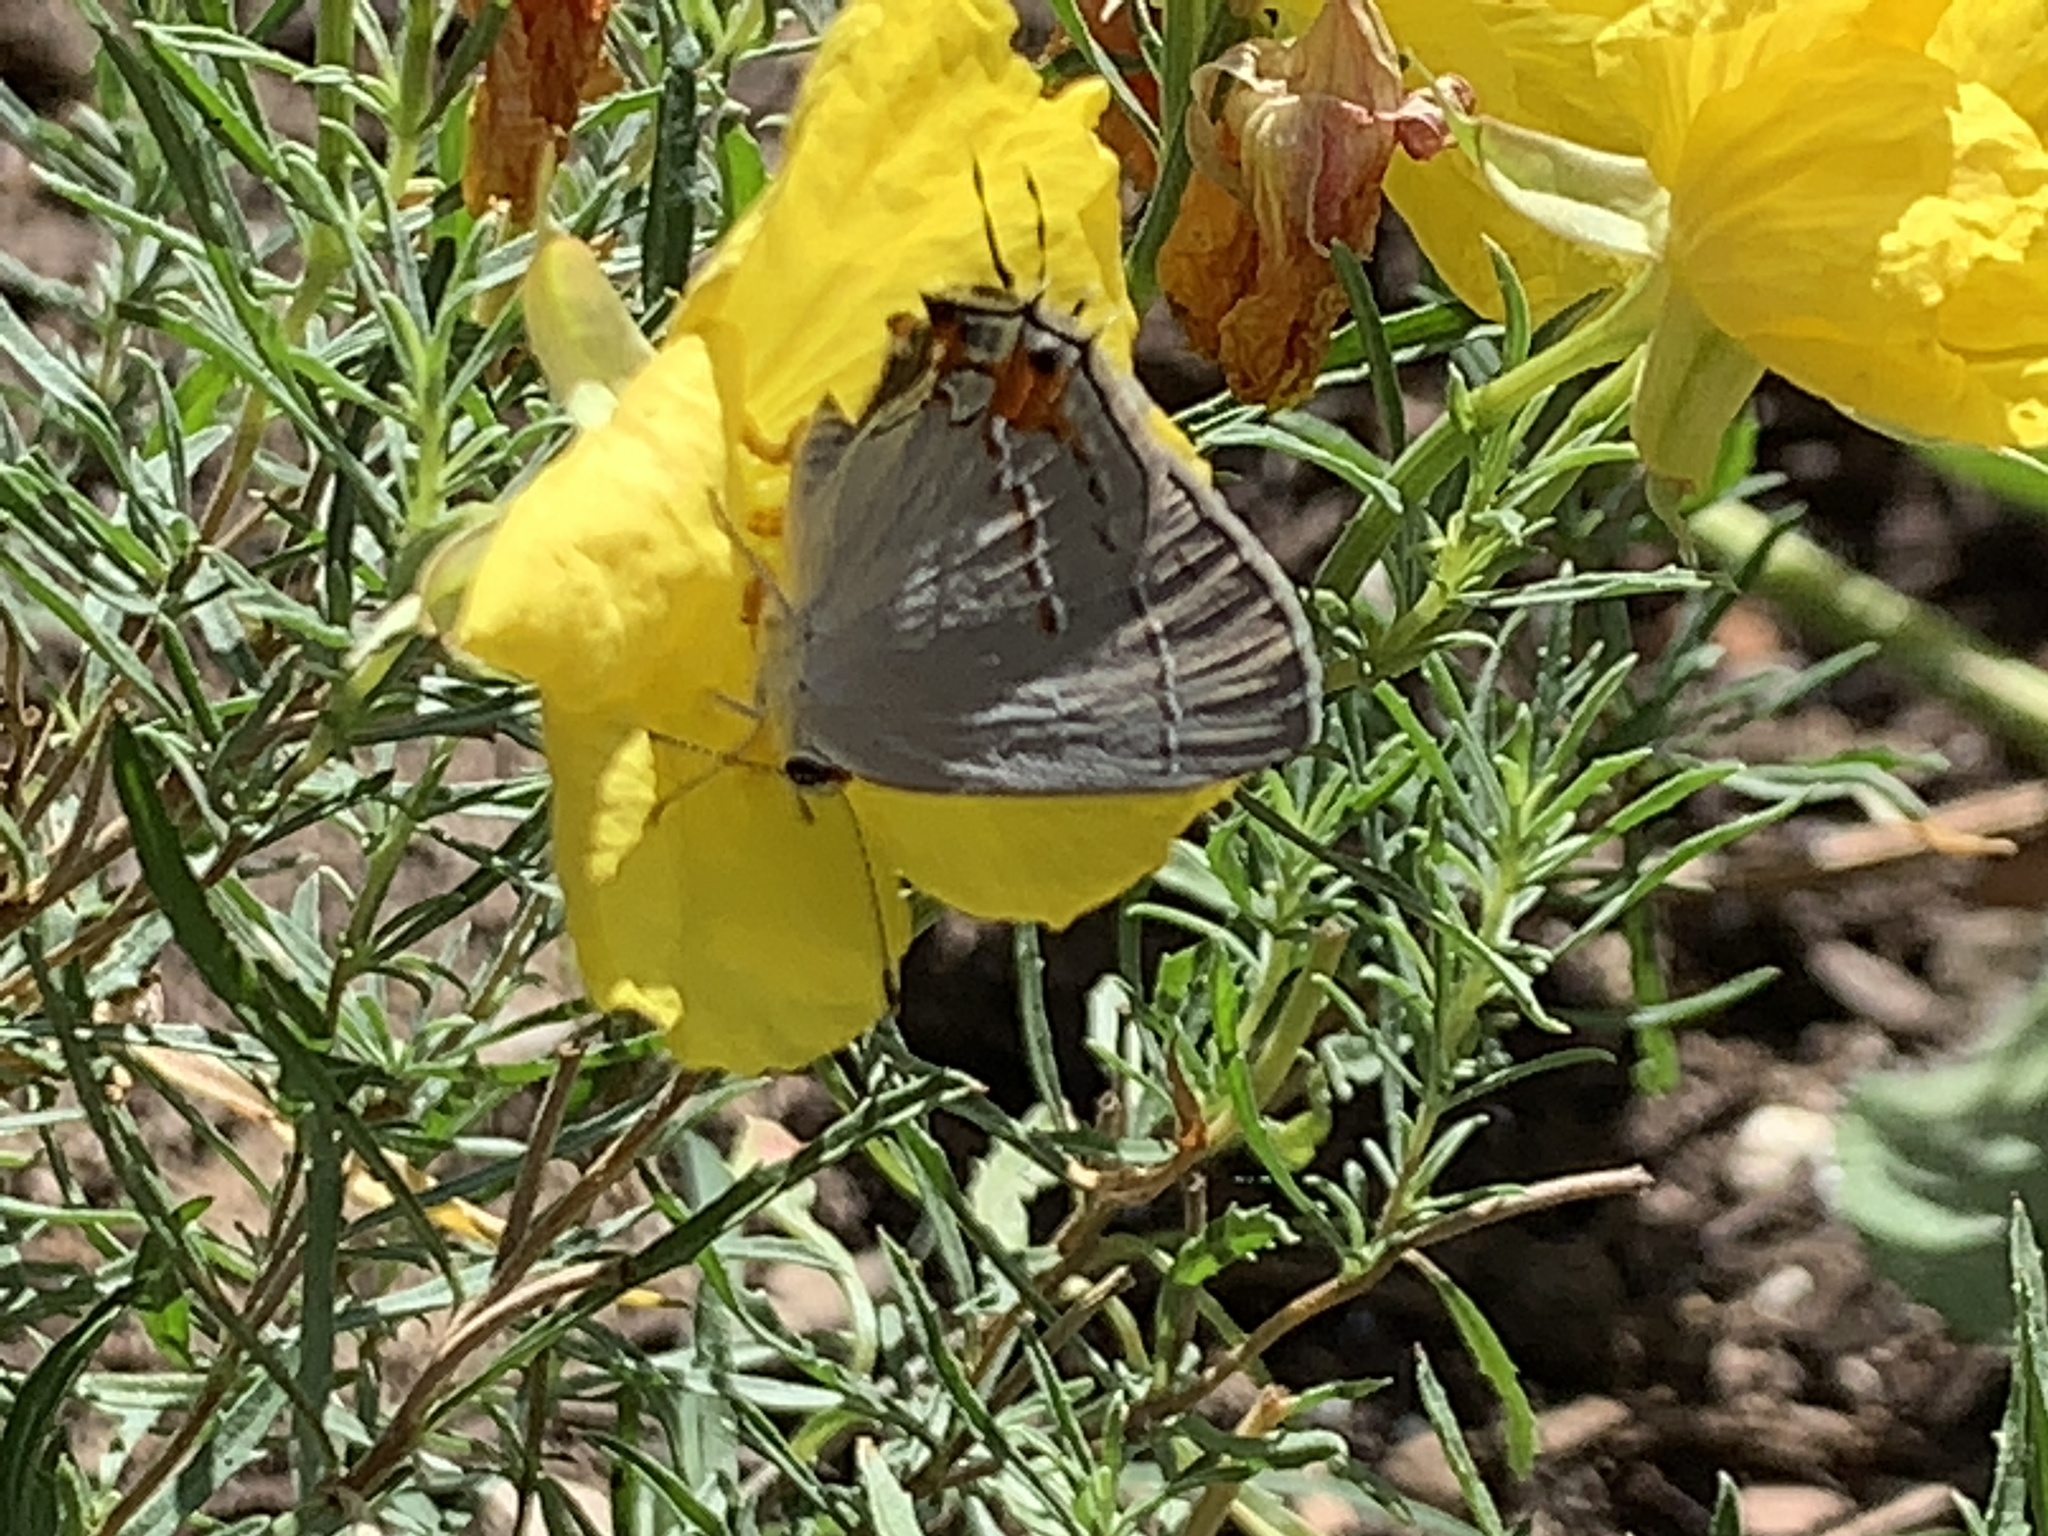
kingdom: Animalia
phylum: Arthropoda
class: Insecta
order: Lepidoptera
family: Lycaenidae
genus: Strymon
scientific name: Strymon melinus
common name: Gray hairstreak
